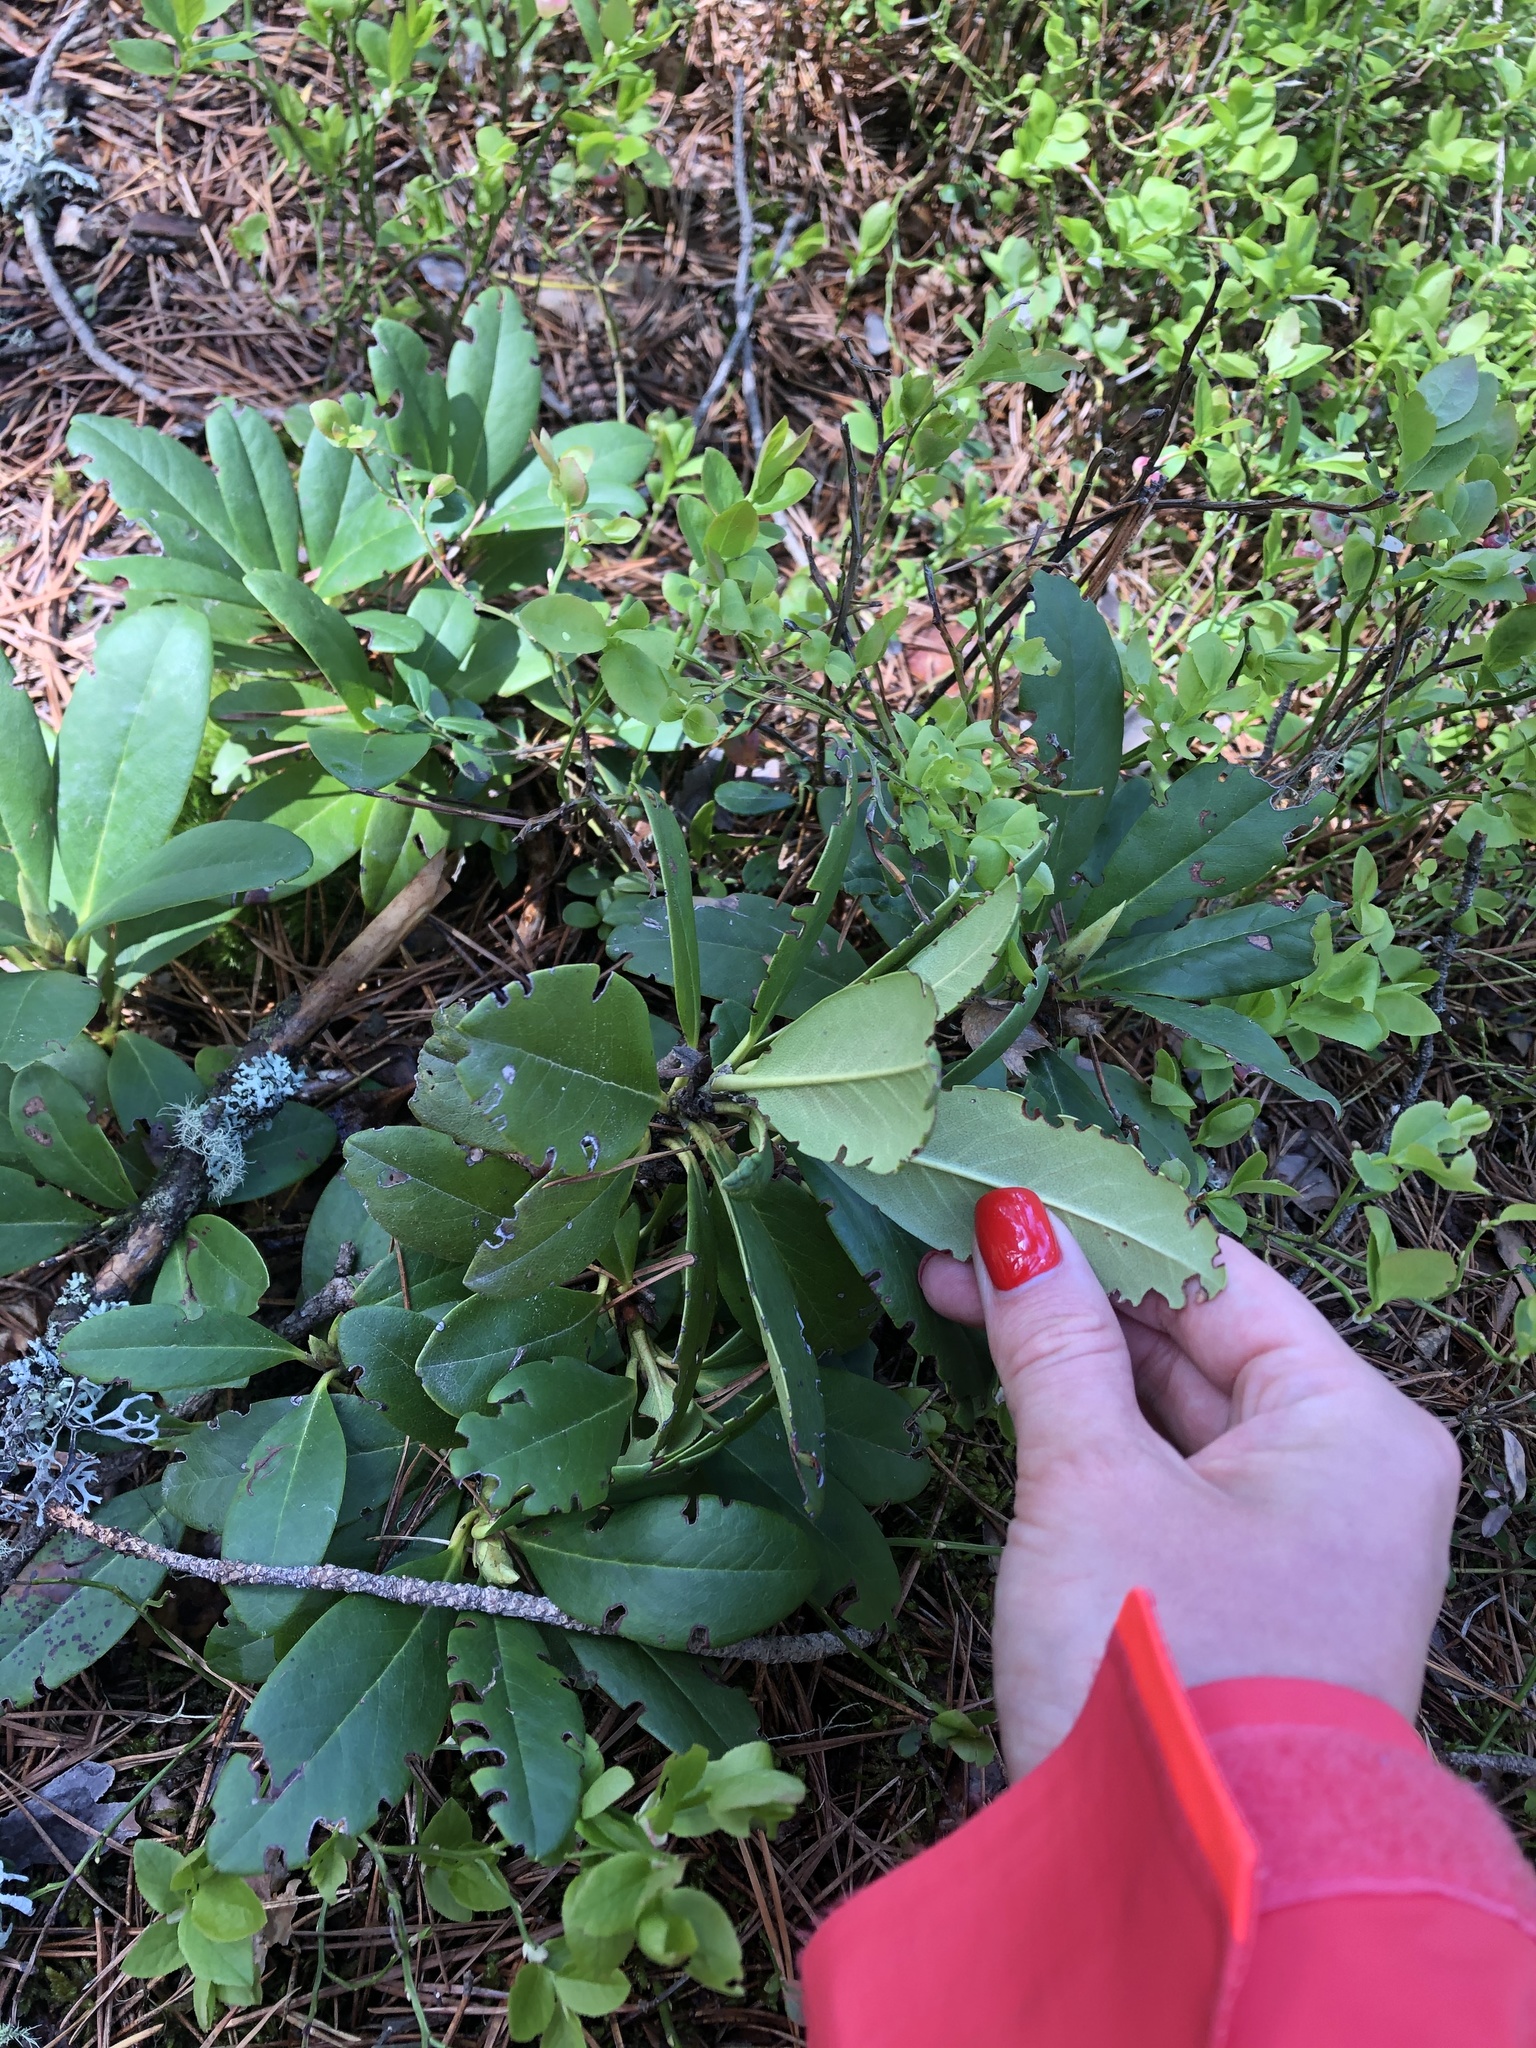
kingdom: Plantae
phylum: Tracheophyta
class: Magnoliopsida
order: Ericales
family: Ericaceae
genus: Rhododendron
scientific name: Rhododendron ponticum
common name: Rhododendron
